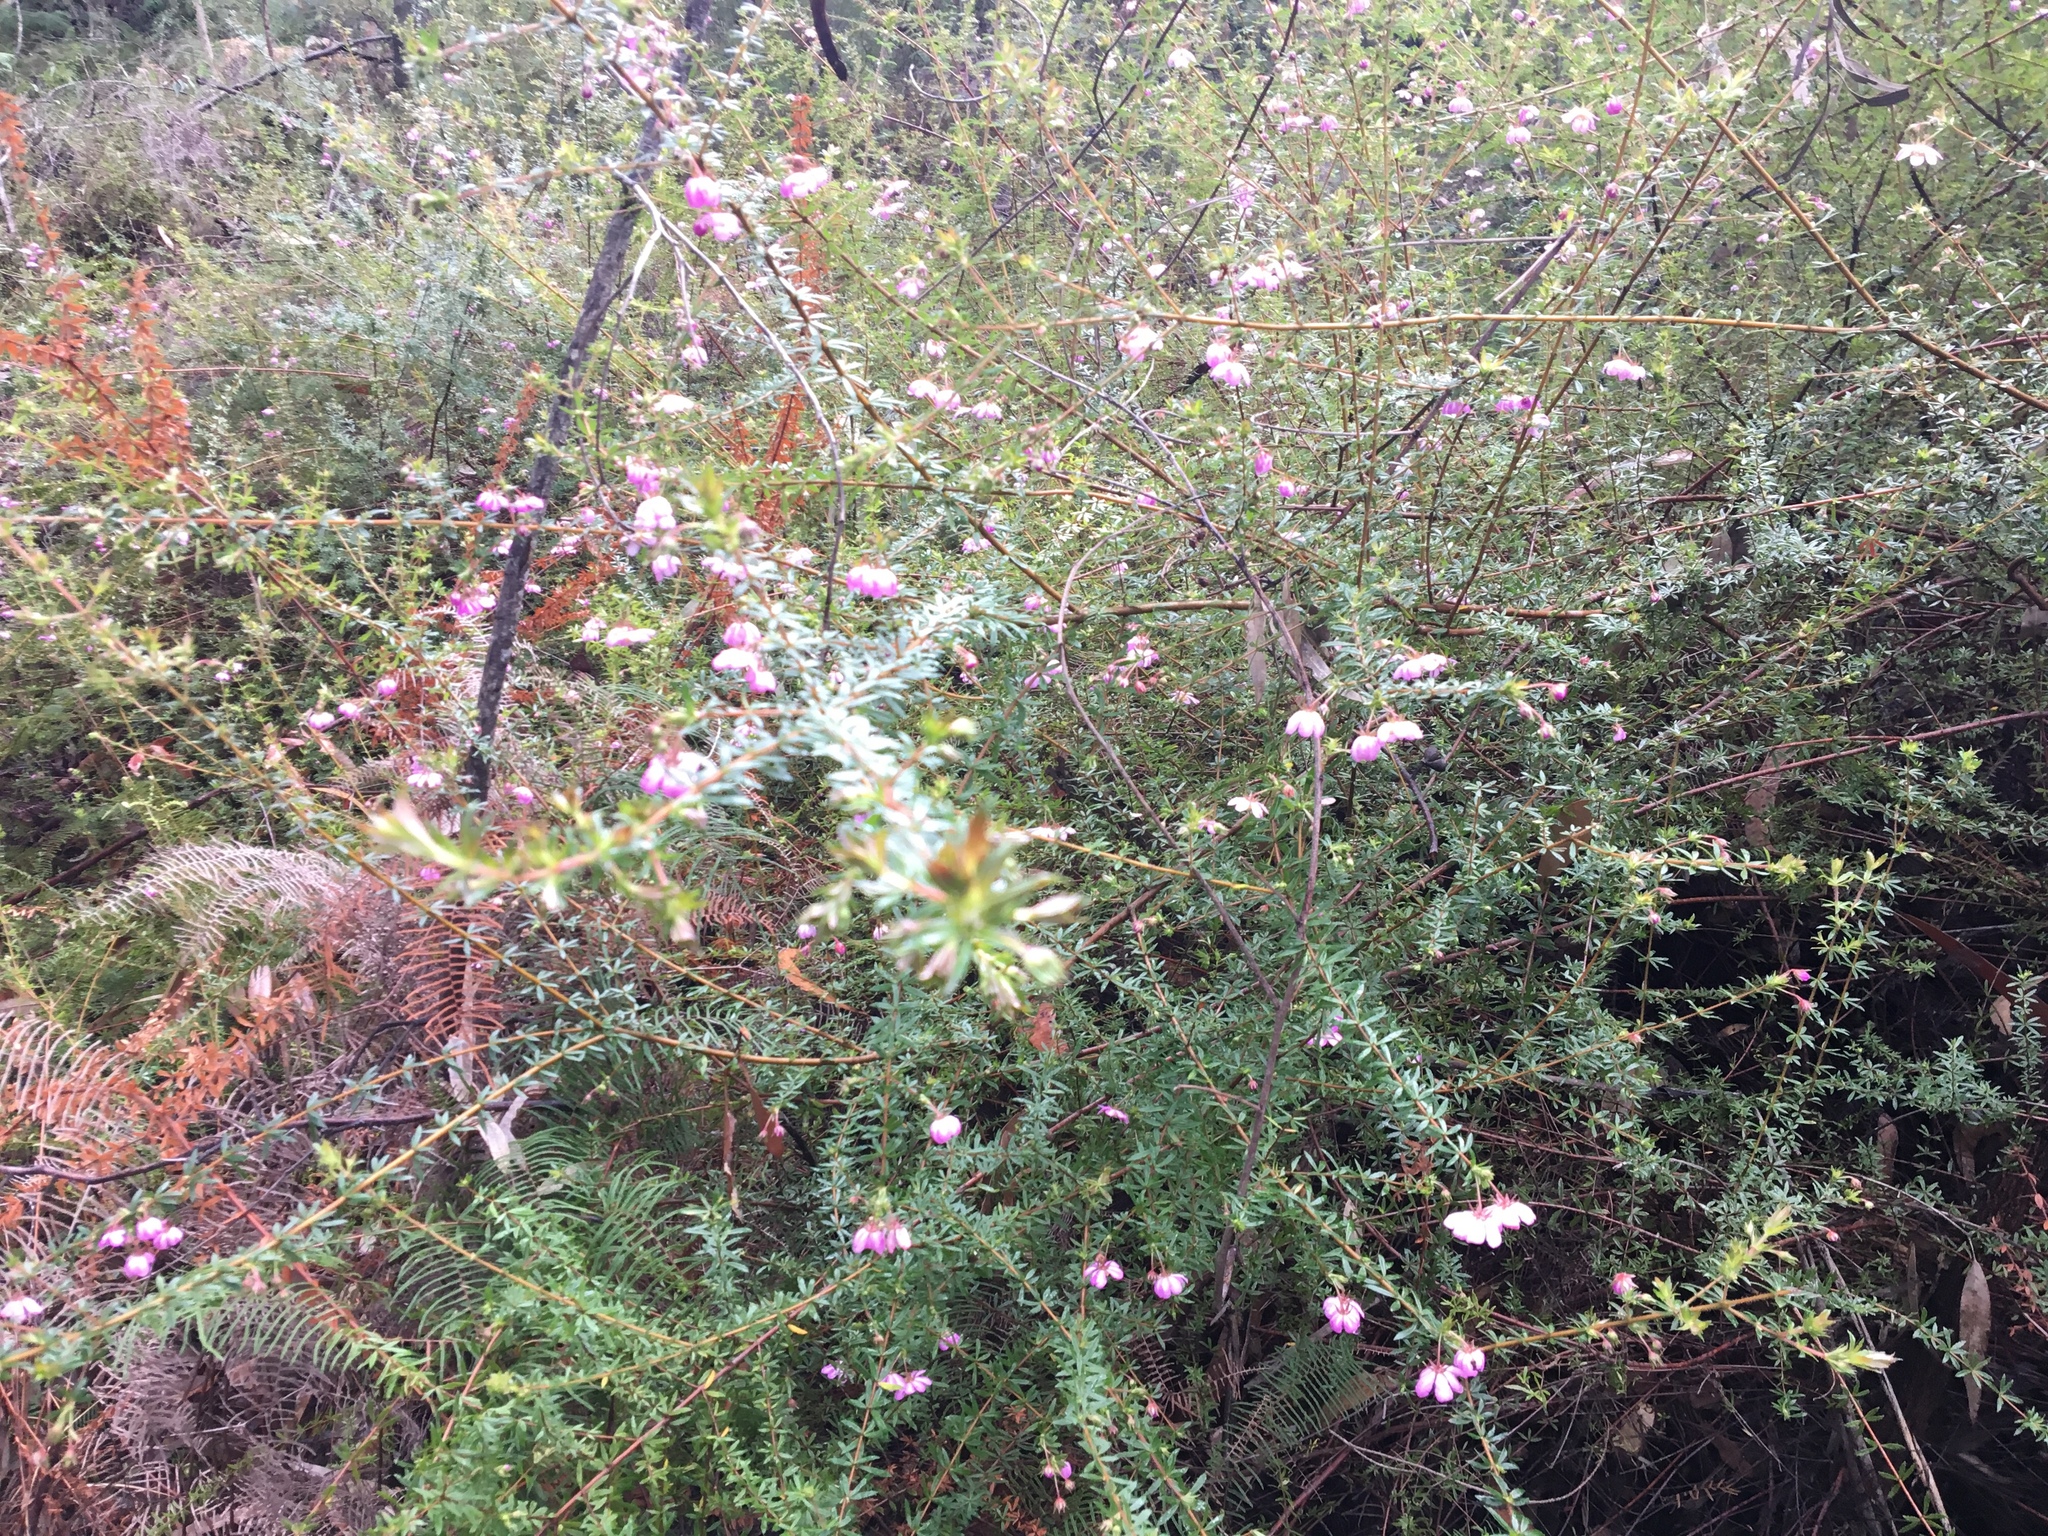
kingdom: Plantae
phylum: Tracheophyta
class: Magnoliopsida
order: Oxalidales
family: Cunoniaceae
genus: Bauera
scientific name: Bauera rubioides
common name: River-rose
